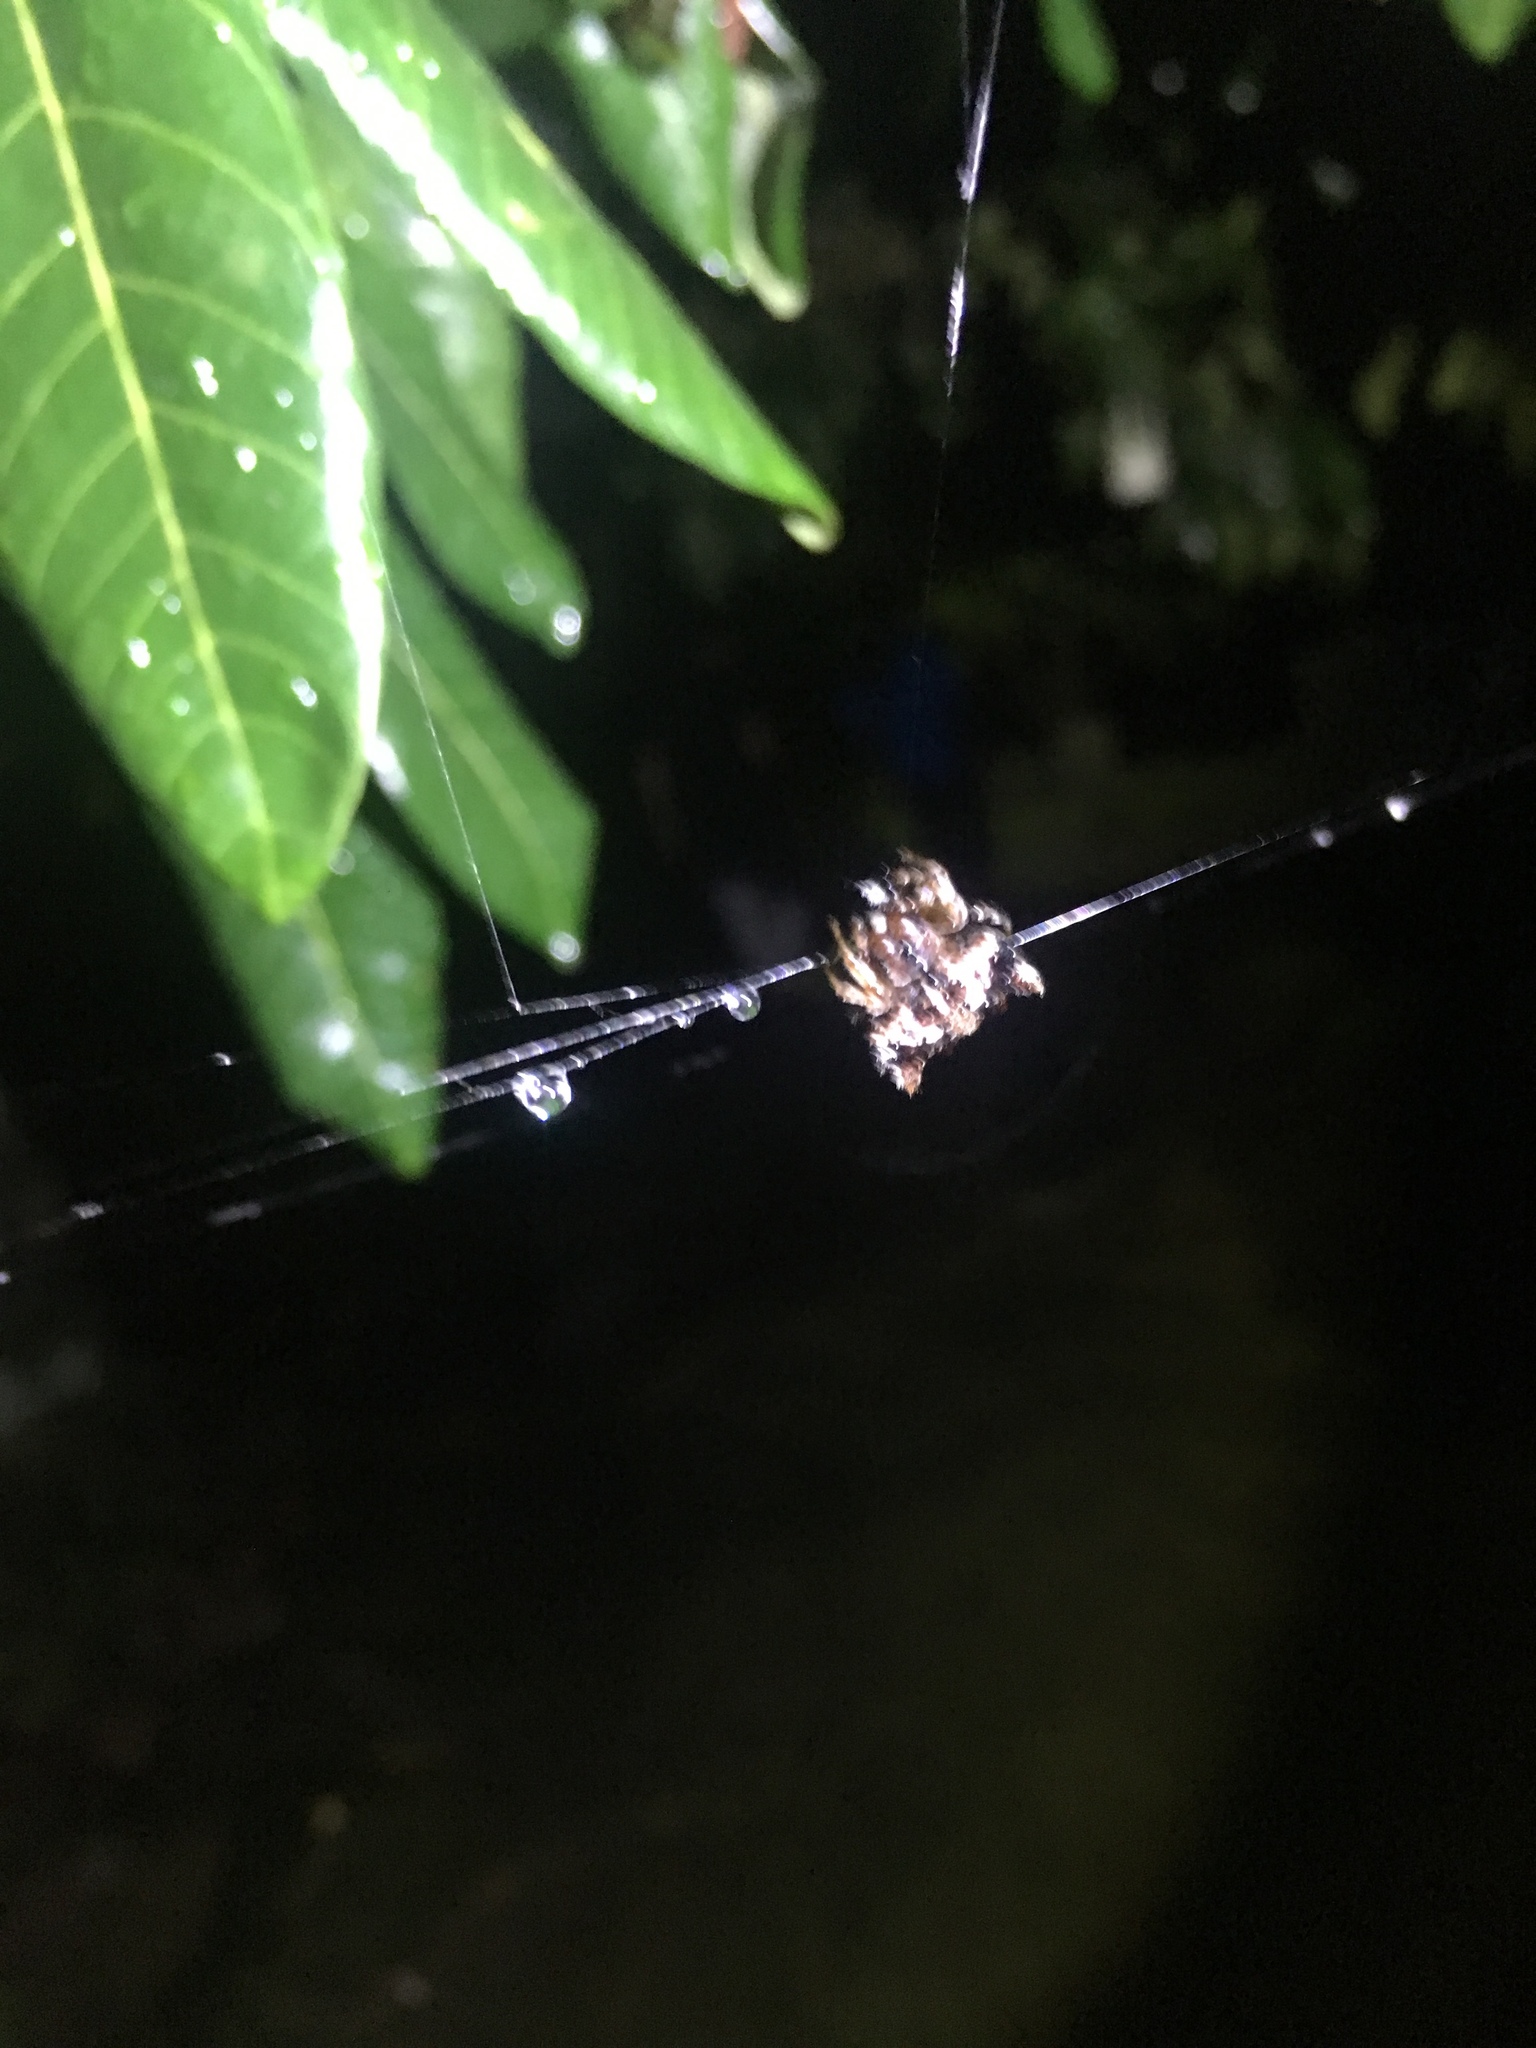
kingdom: Animalia
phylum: Arthropoda
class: Arachnida
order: Araneae
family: Araneidae
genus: Thelacantha
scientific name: Thelacantha brevispina
